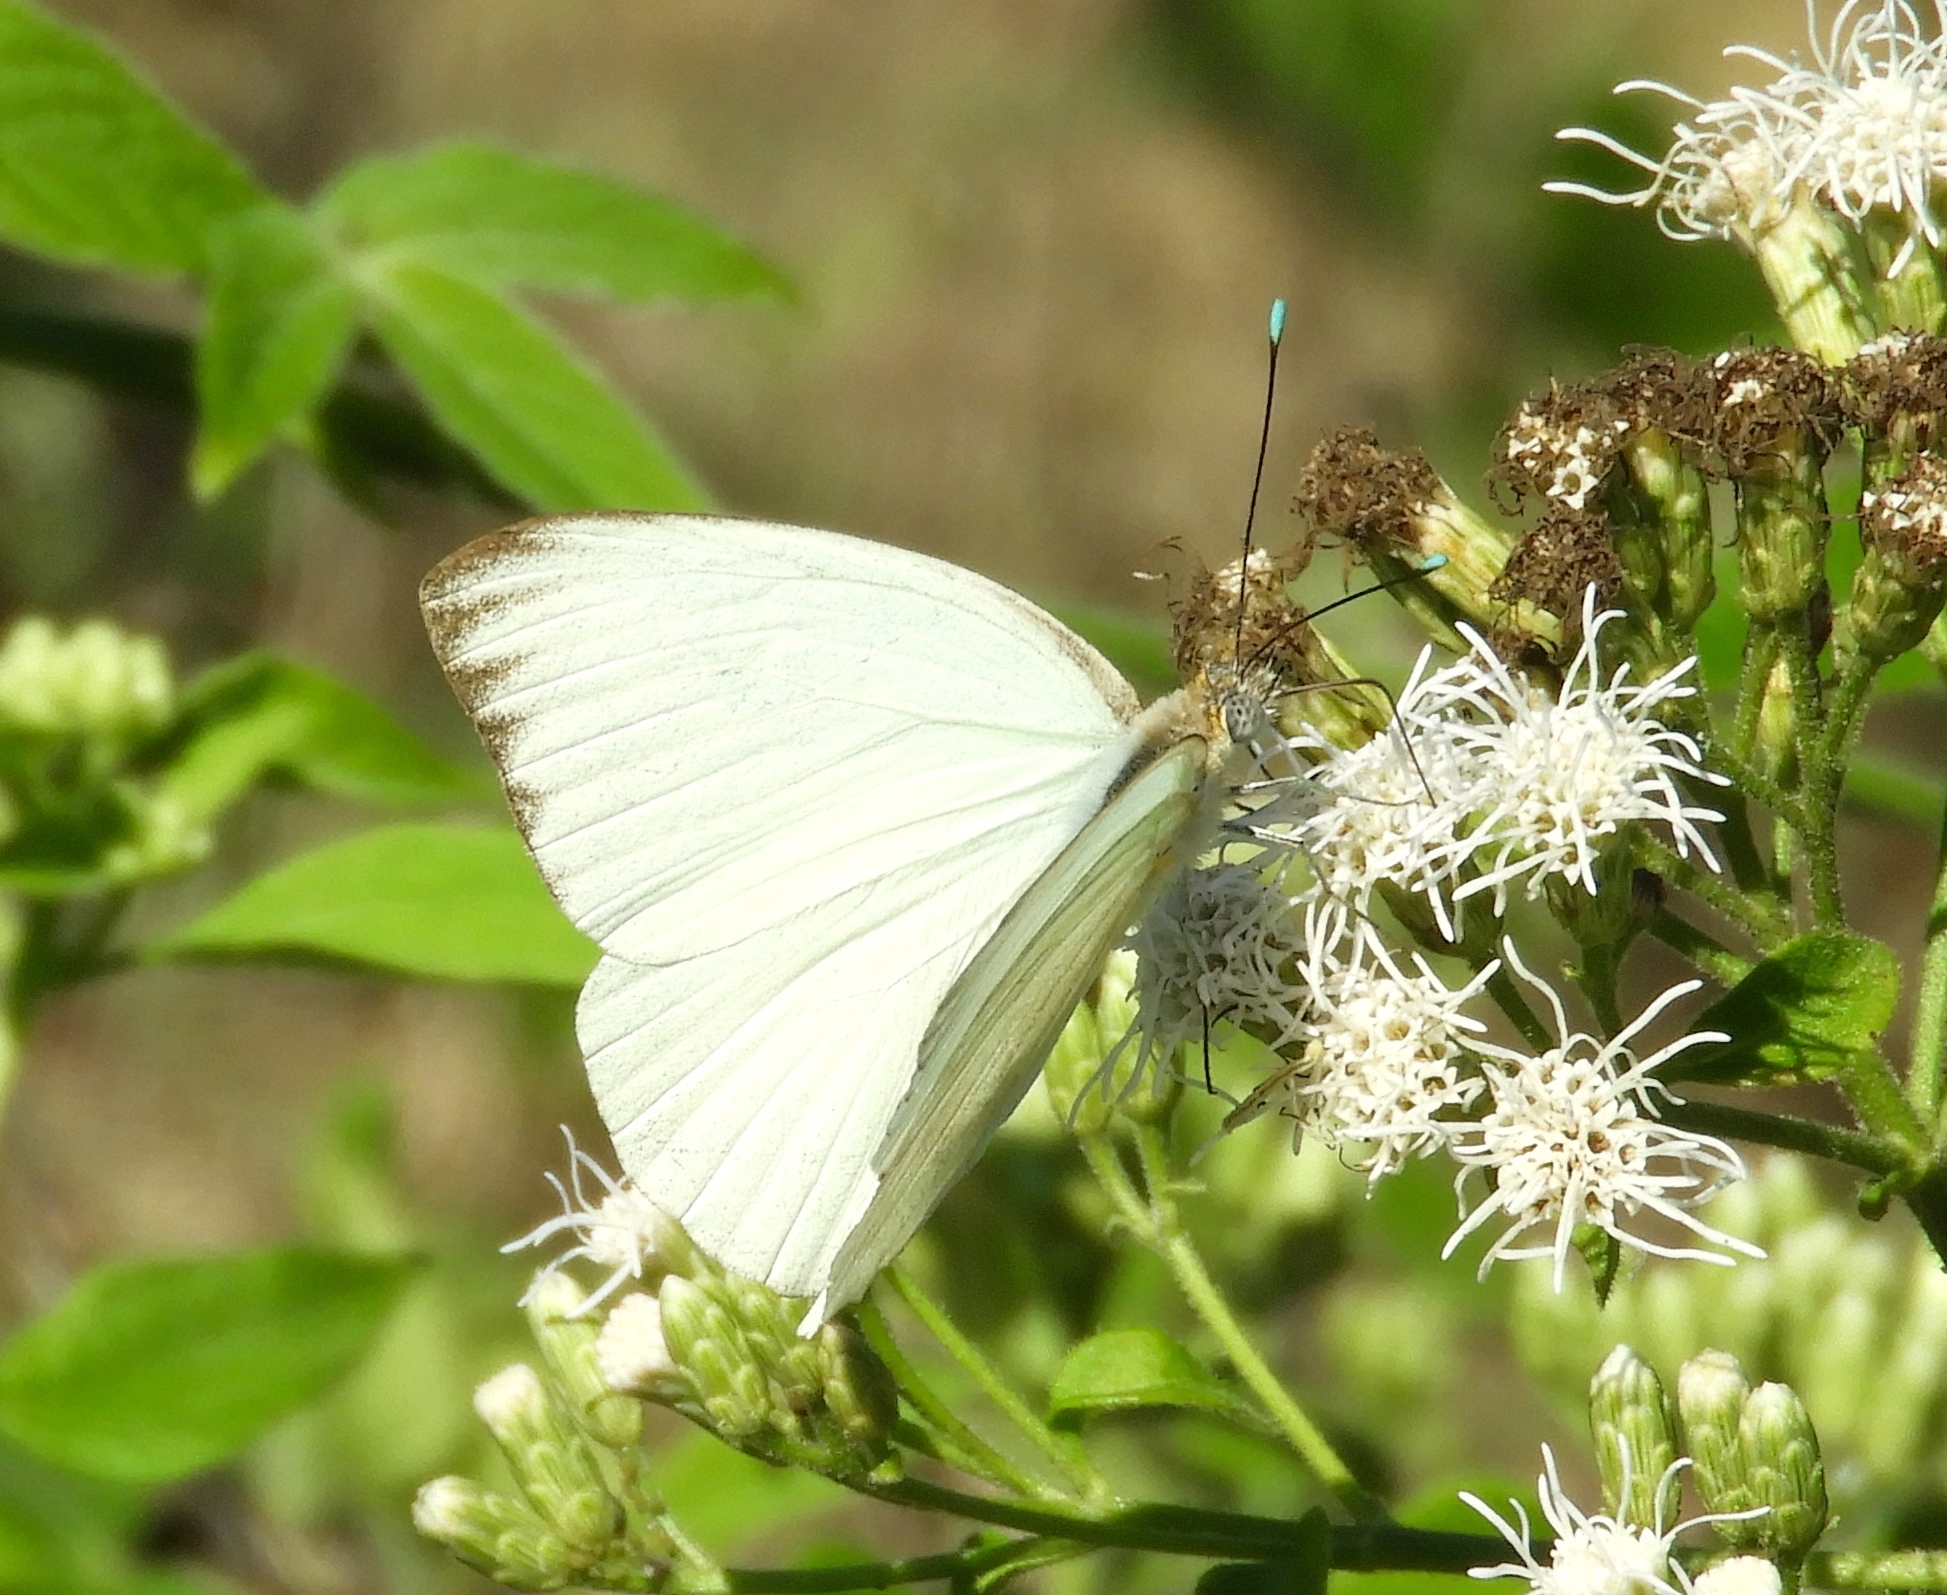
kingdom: Animalia
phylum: Arthropoda
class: Insecta
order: Lepidoptera
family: Pieridae
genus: Ascia
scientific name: Ascia monuste
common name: Great southern white
